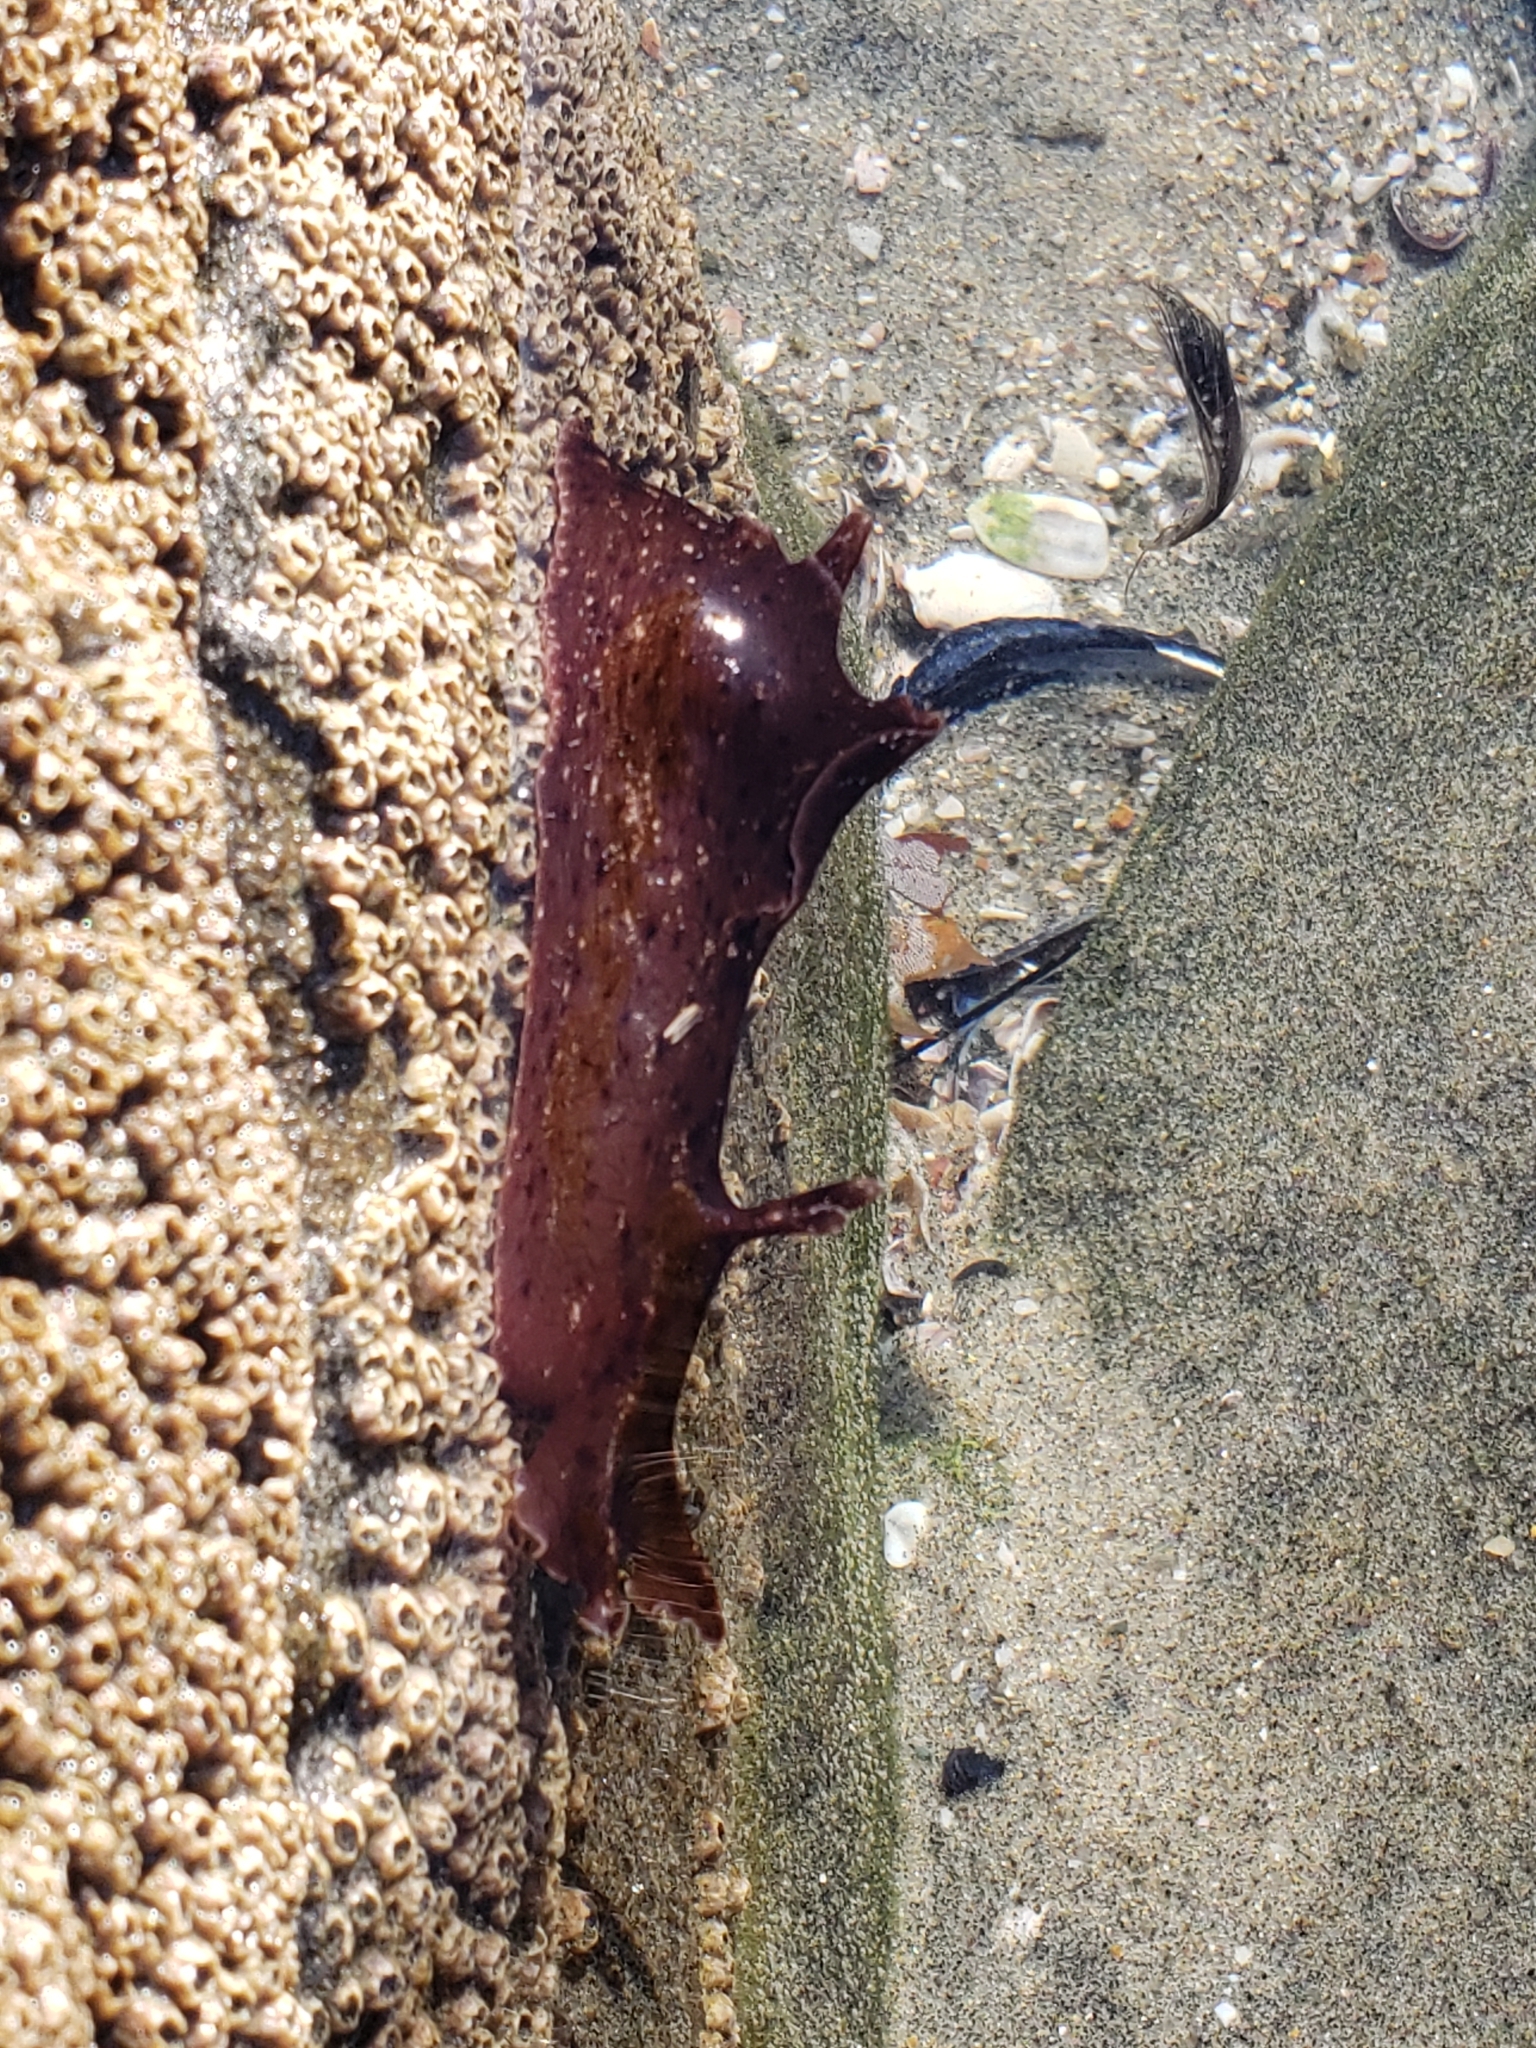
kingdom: Animalia
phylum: Mollusca
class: Gastropoda
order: Aplysiida
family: Aplysiidae
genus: Aplysia
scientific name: Aplysia californica
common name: California seahare
